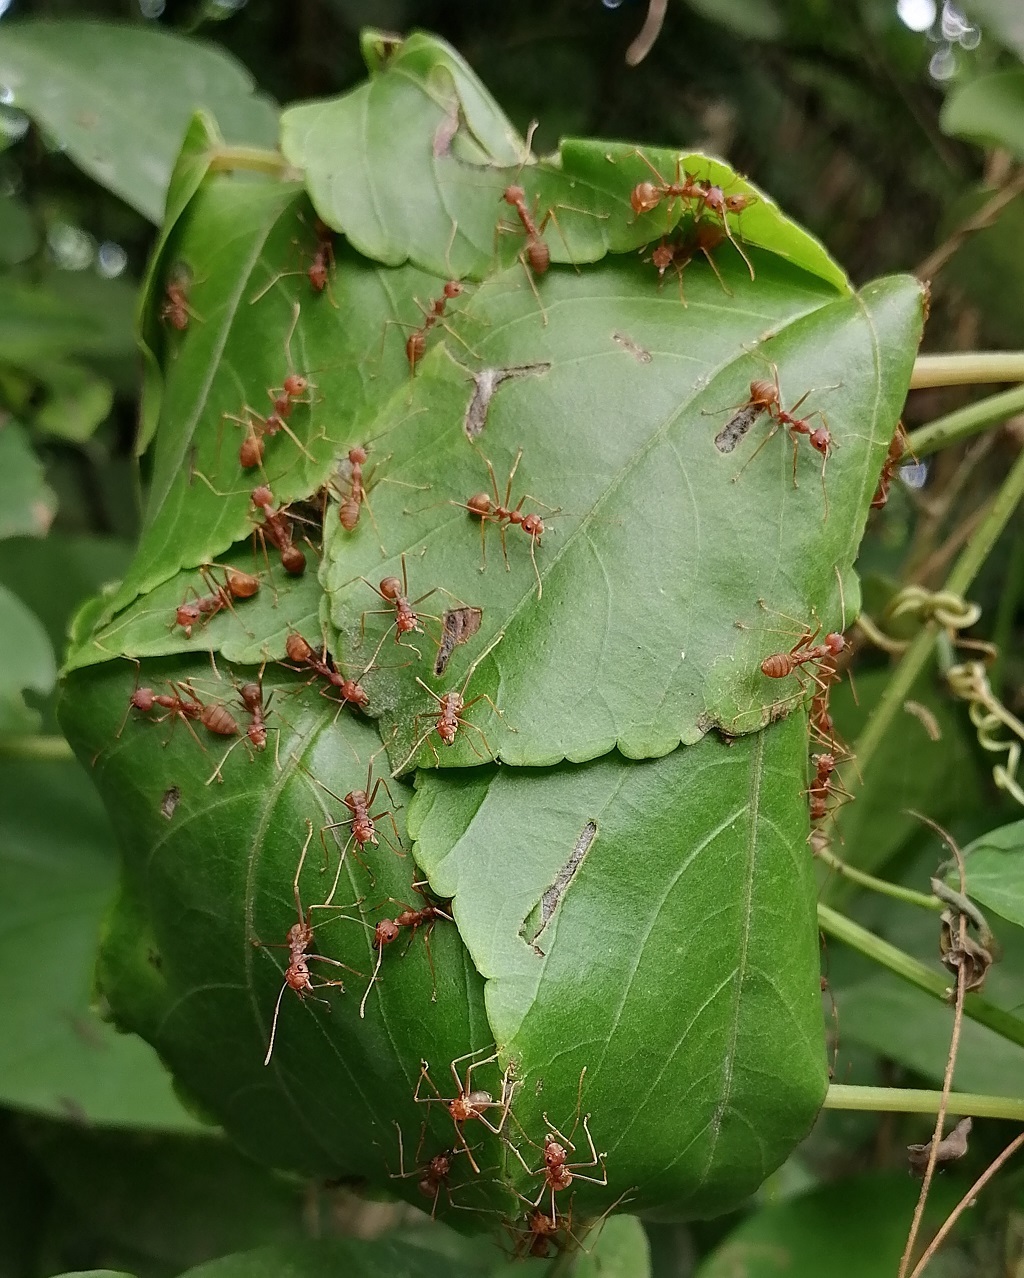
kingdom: Animalia
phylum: Arthropoda
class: Insecta
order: Hymenoptera
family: Formicidae
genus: Oecophylla
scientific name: Oecophylla smaragdina
